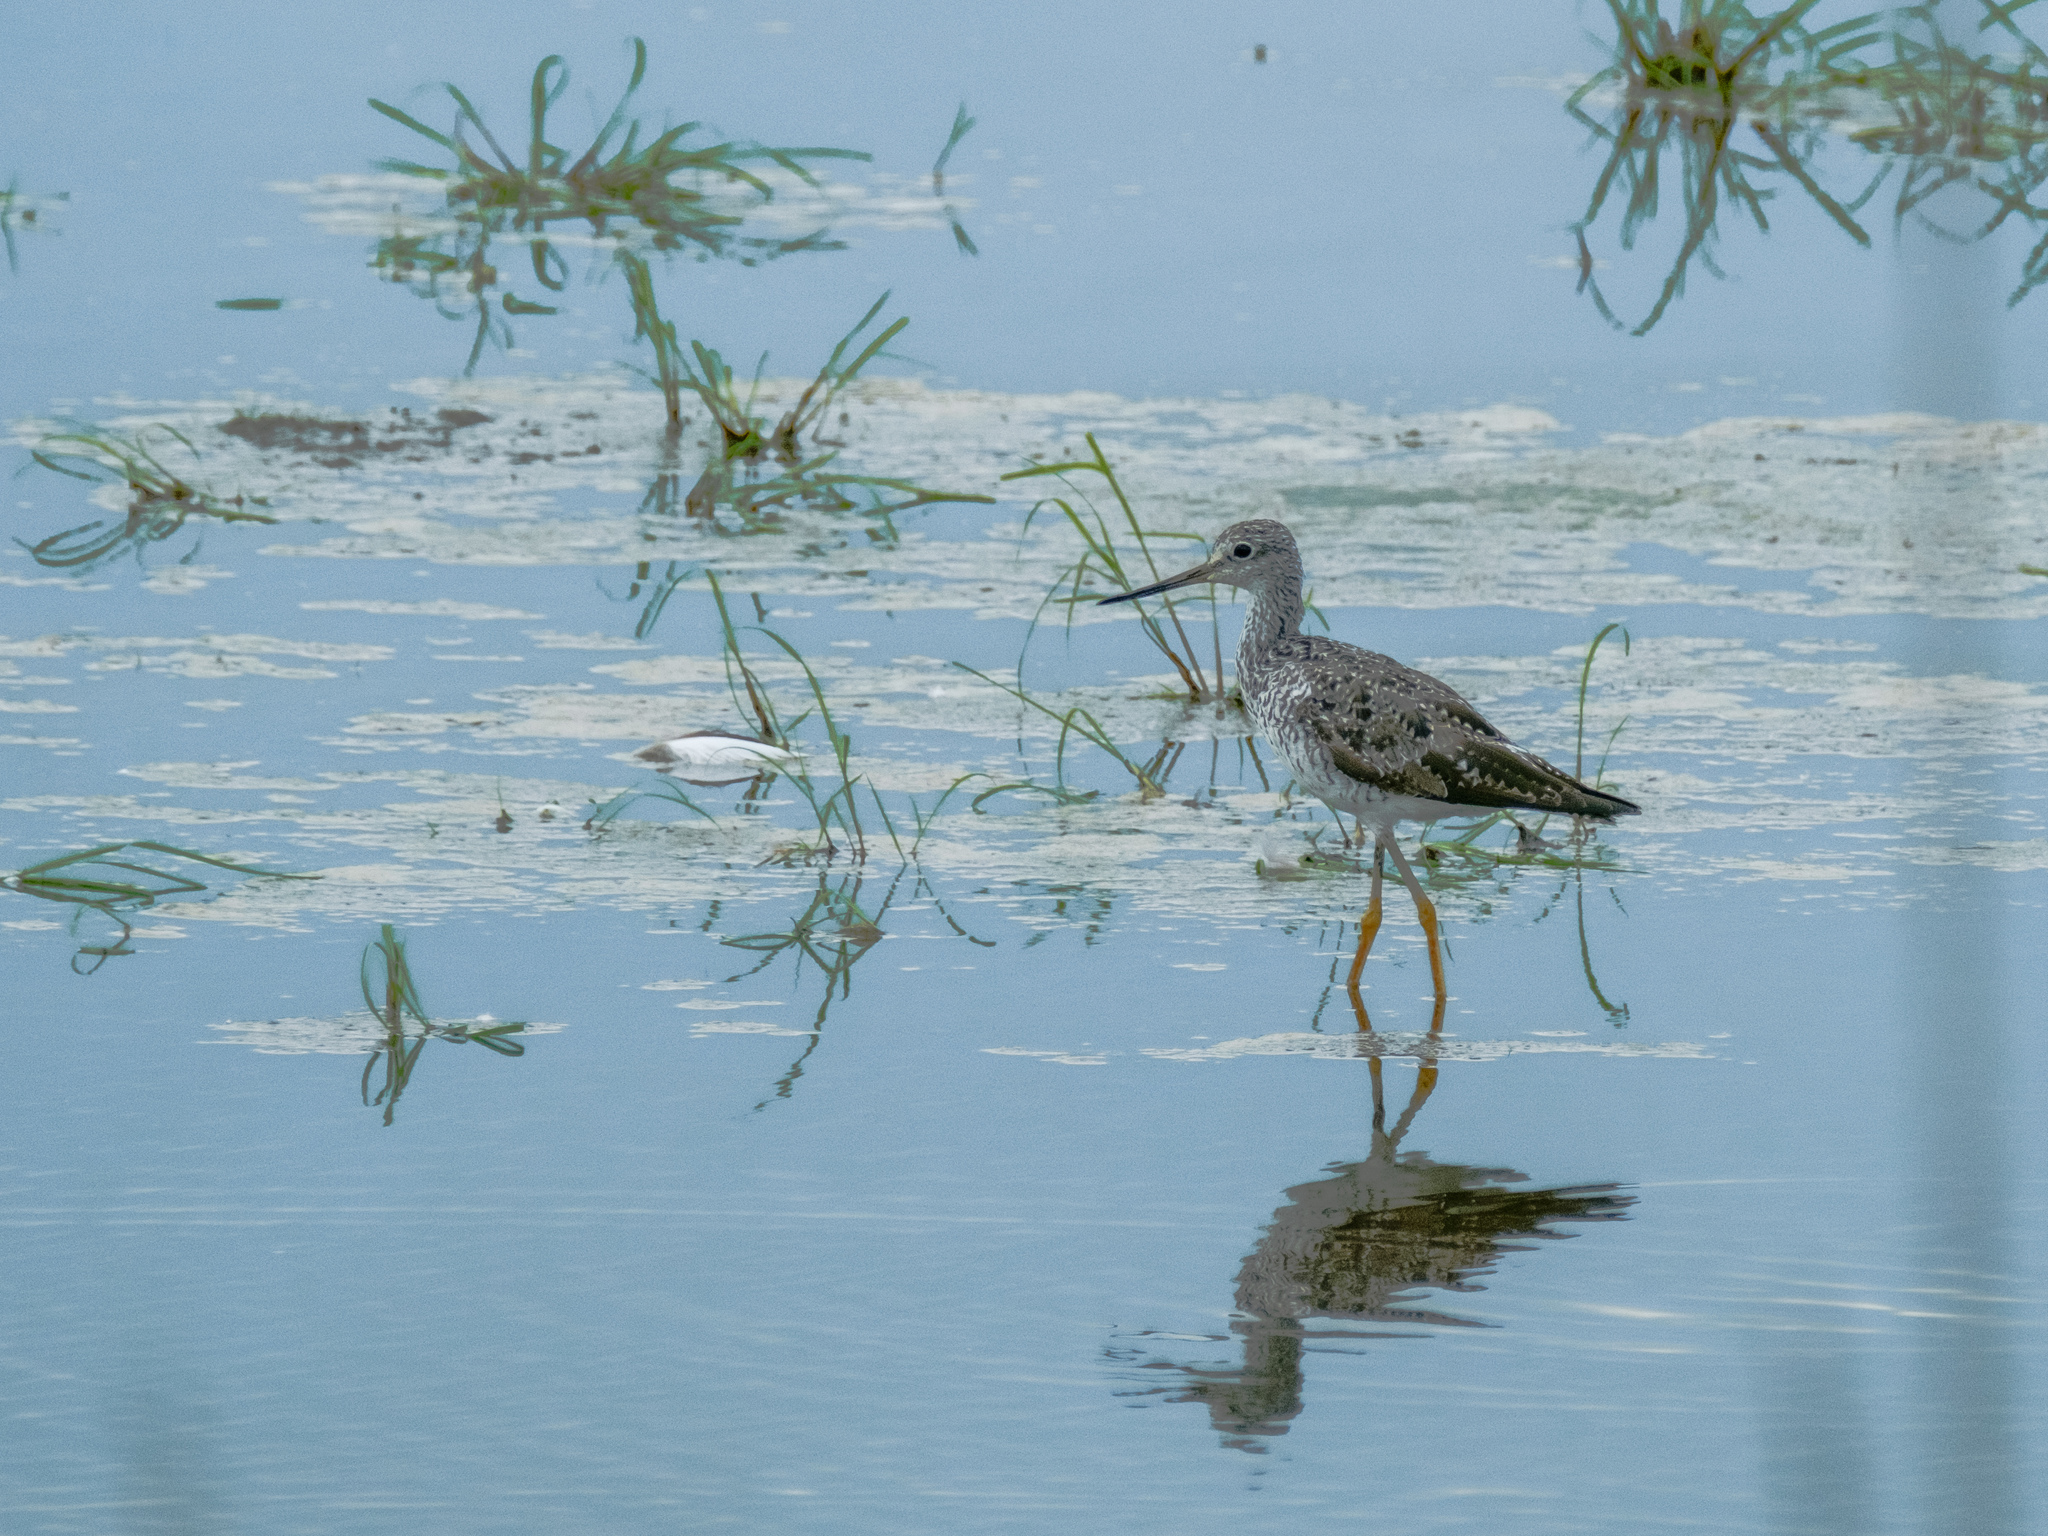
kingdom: Animalia
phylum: Chordata
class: Aves
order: Charadriiformes
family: Scolopacidae
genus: Tringa
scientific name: Tringa melanoleuca
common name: Greater yellowlegs
